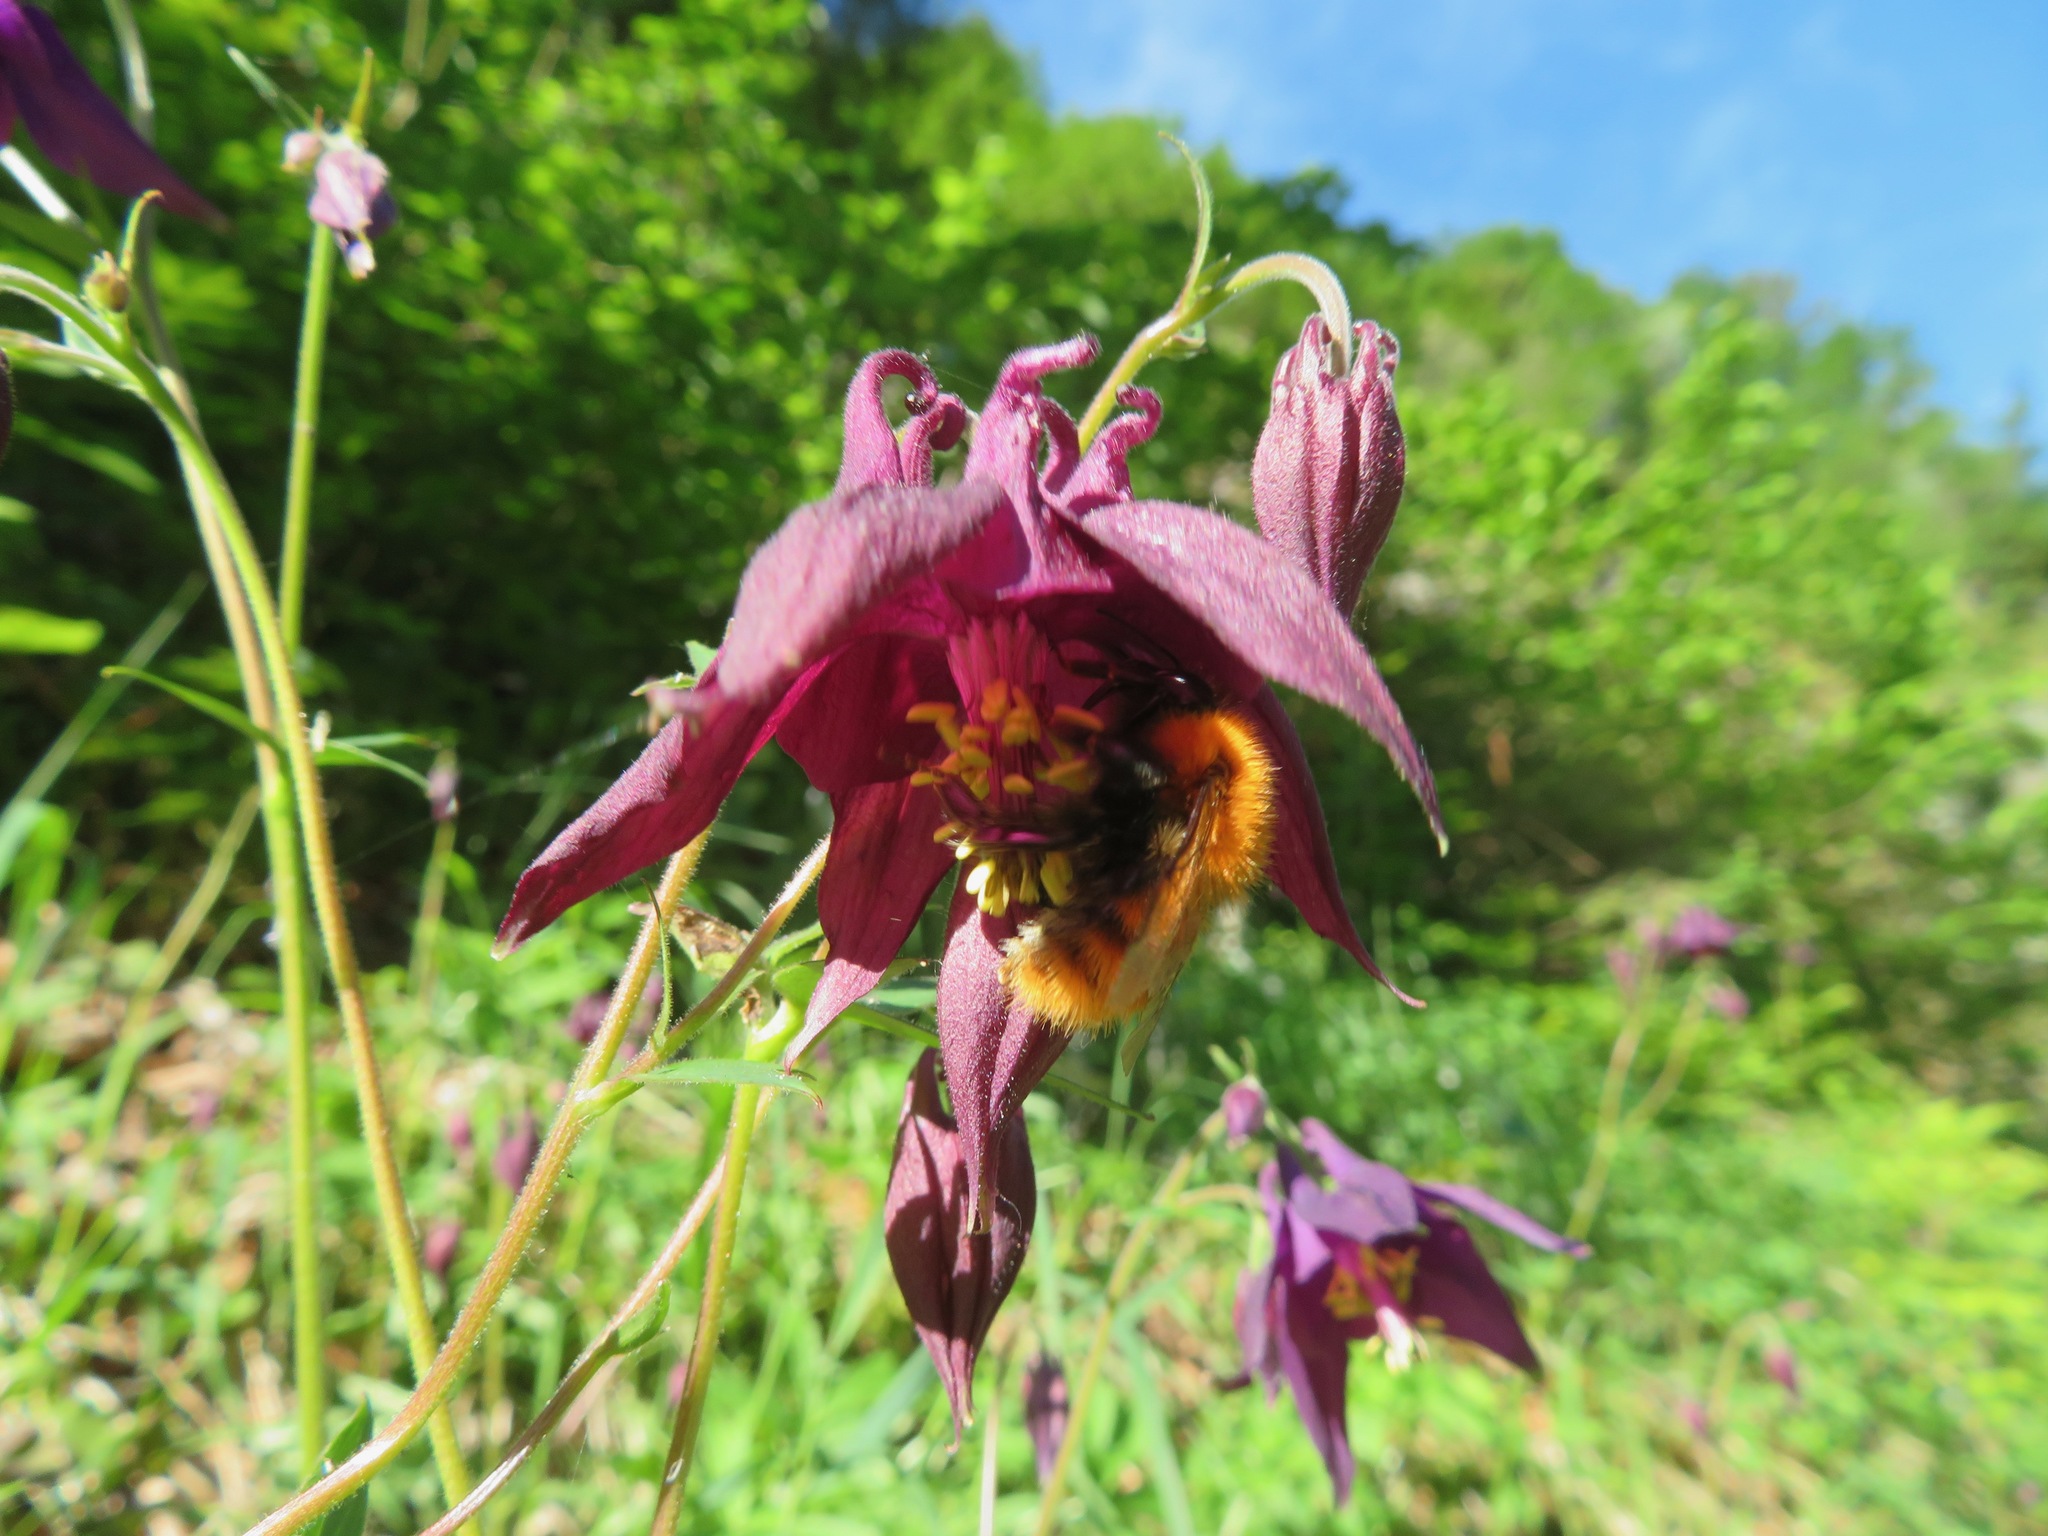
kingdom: Animalia
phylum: Arthropoda
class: Insecta
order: Hymenoptera
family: Apidae
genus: Bombus
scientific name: Bombus pascuorum
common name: Common carder bee
